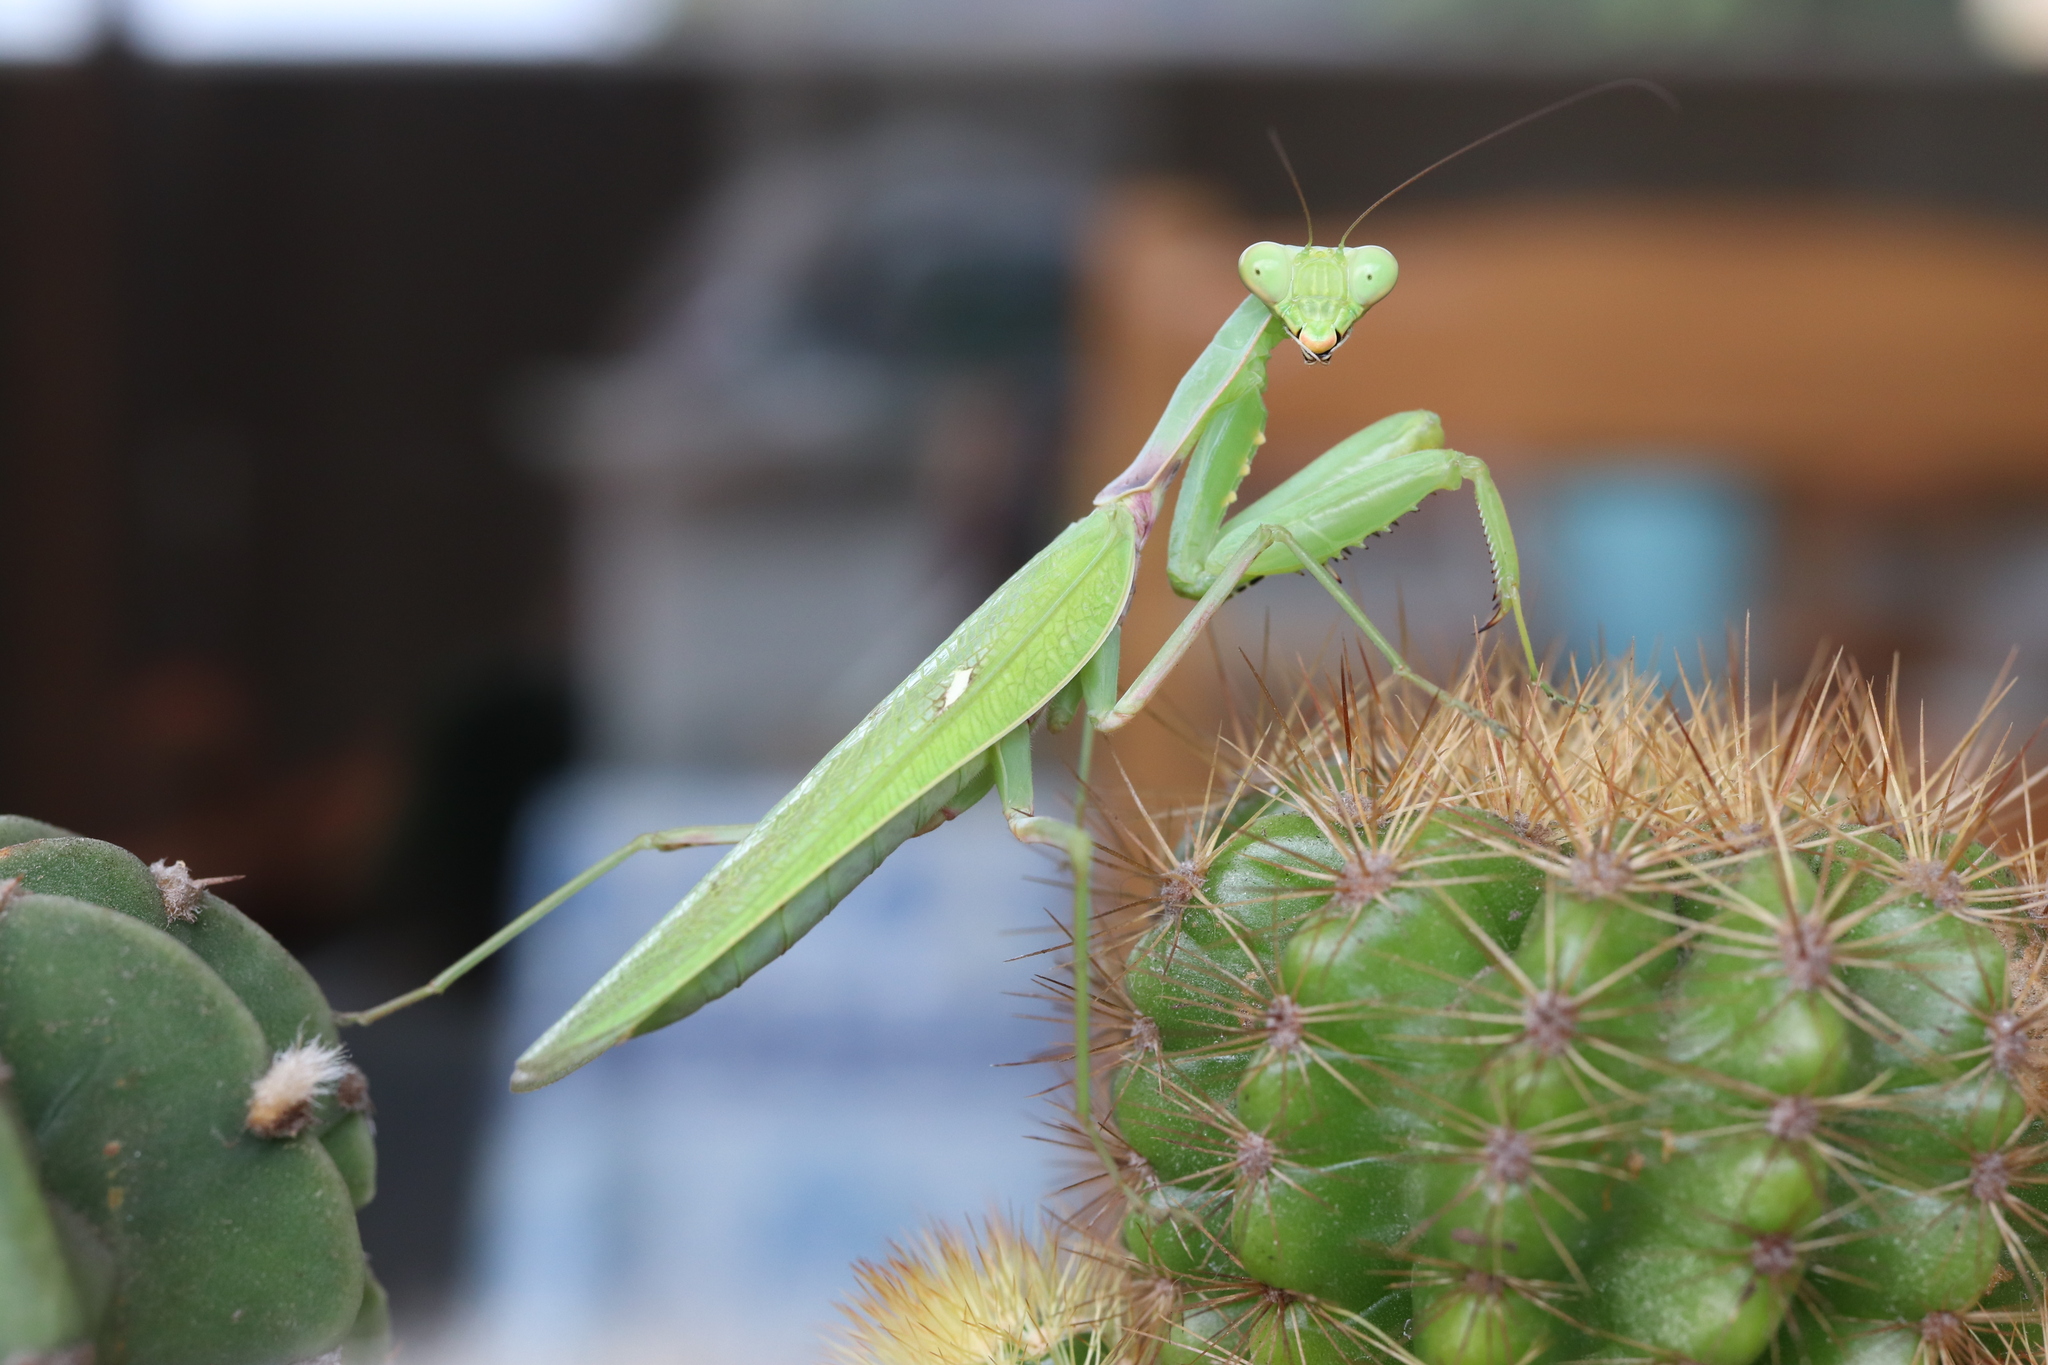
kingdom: Animalia
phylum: Arthropoda
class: Insecta
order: Mantodea
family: Mantidae
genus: Hierodula
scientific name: Hierodula patellifera
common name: Asian mantis
